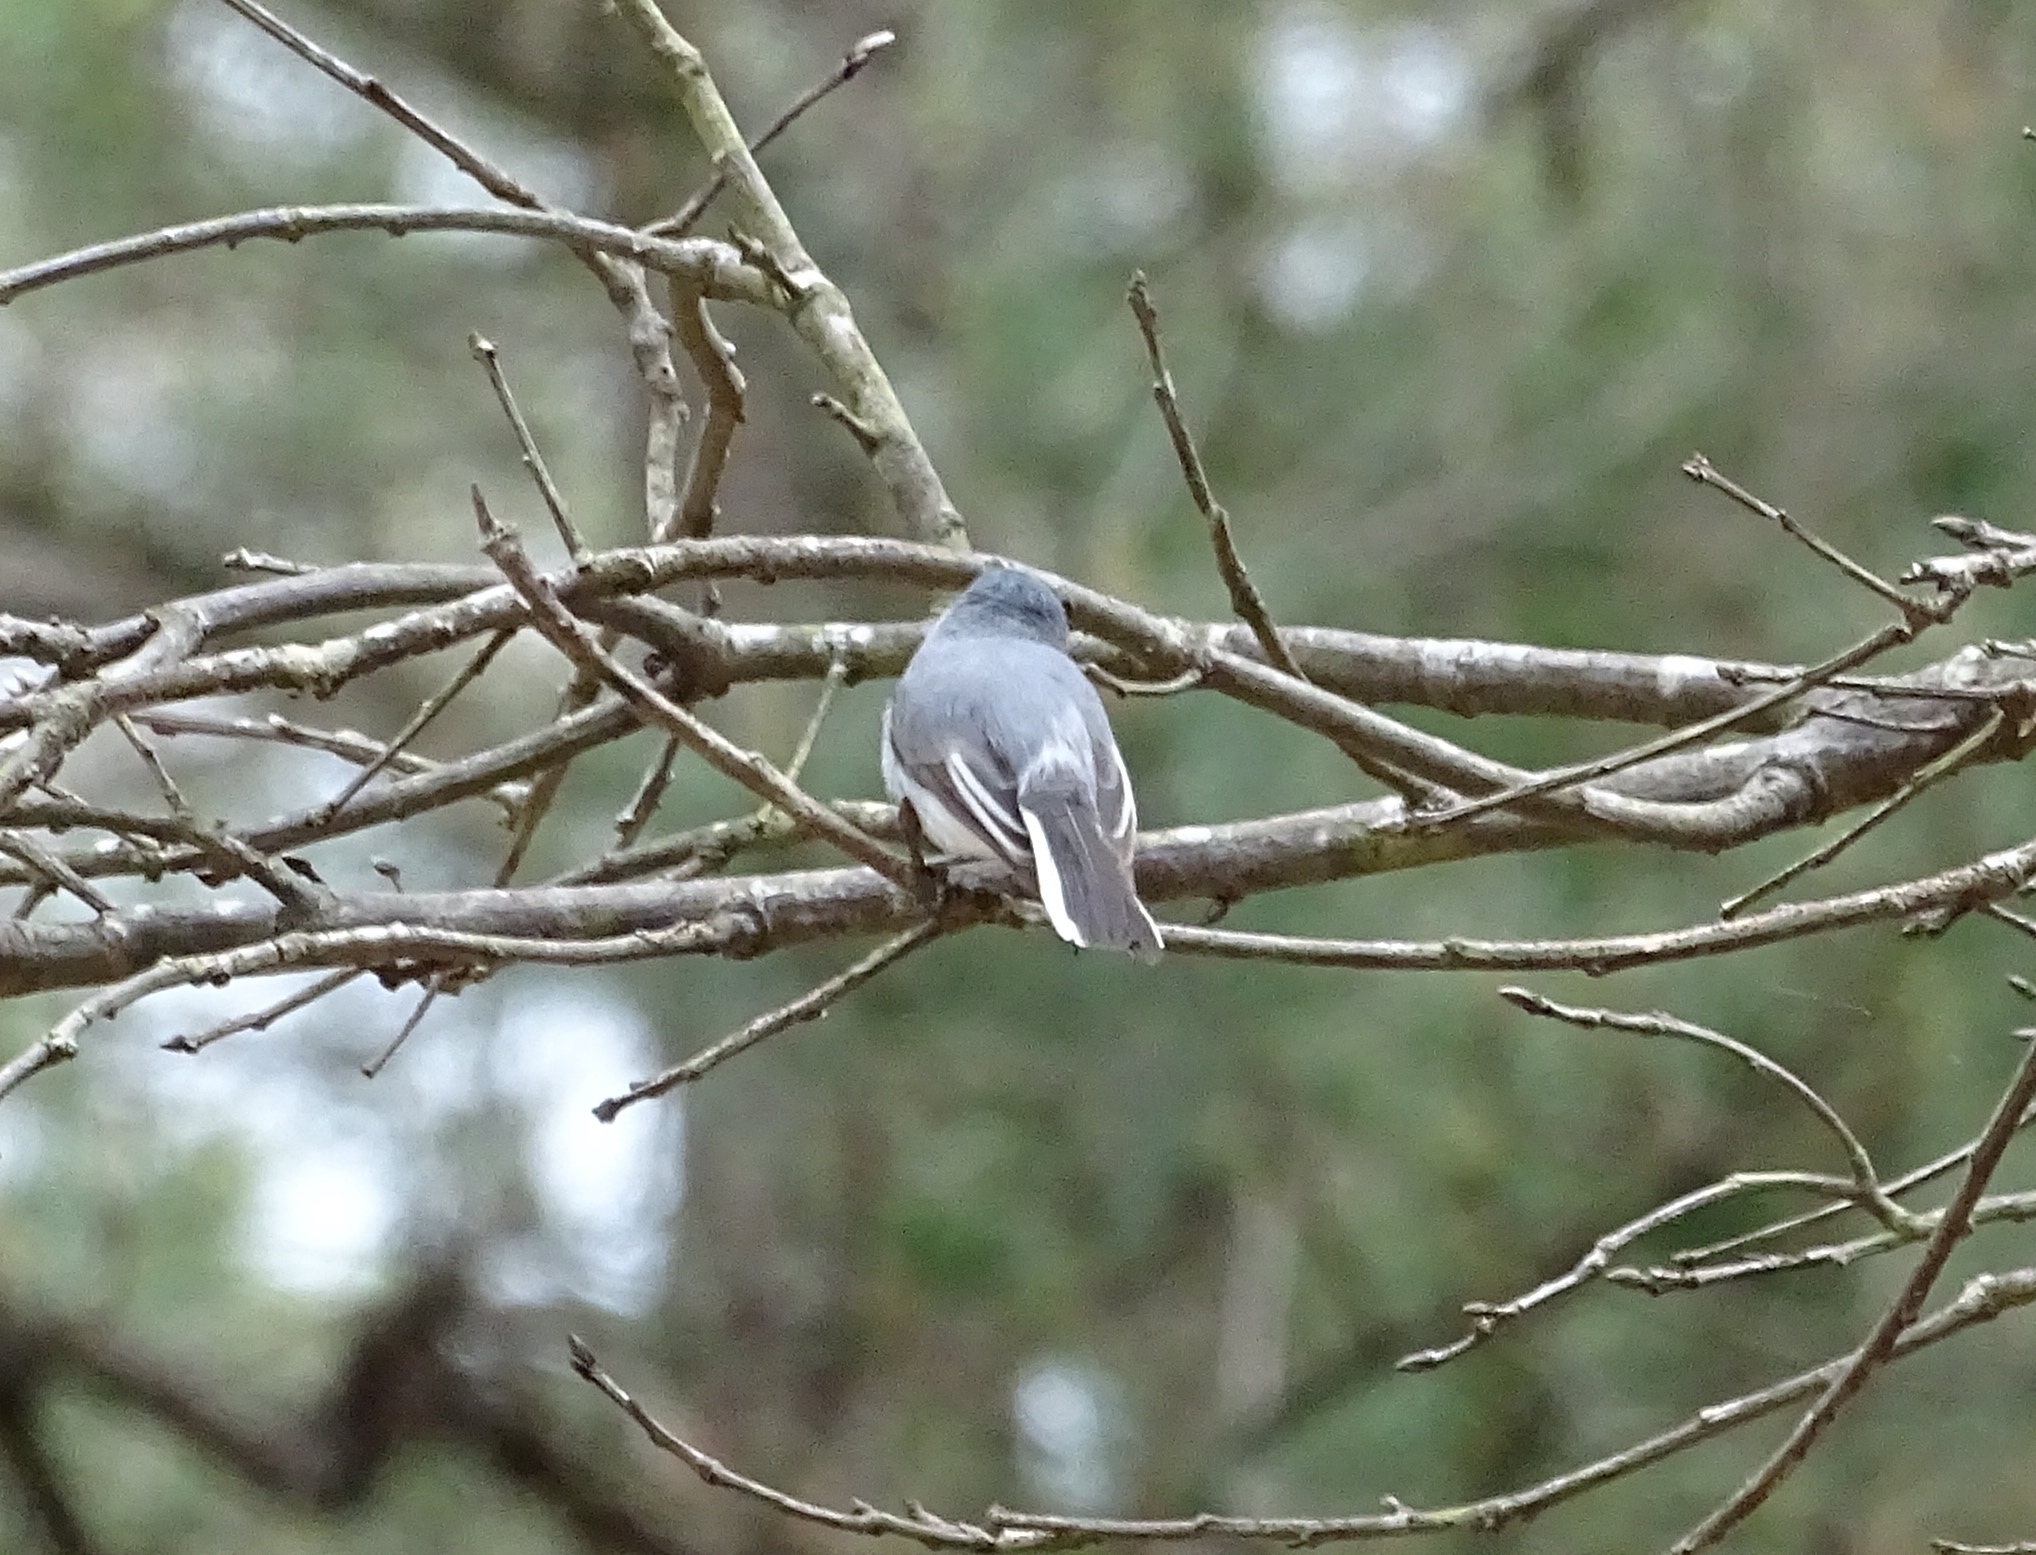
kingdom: Animalia
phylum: Chordata
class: Aves
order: Passeriformes
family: Polioptilidae
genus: Polioptila
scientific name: Polioptila caerulea
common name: Blue-gray gnatcatcher
